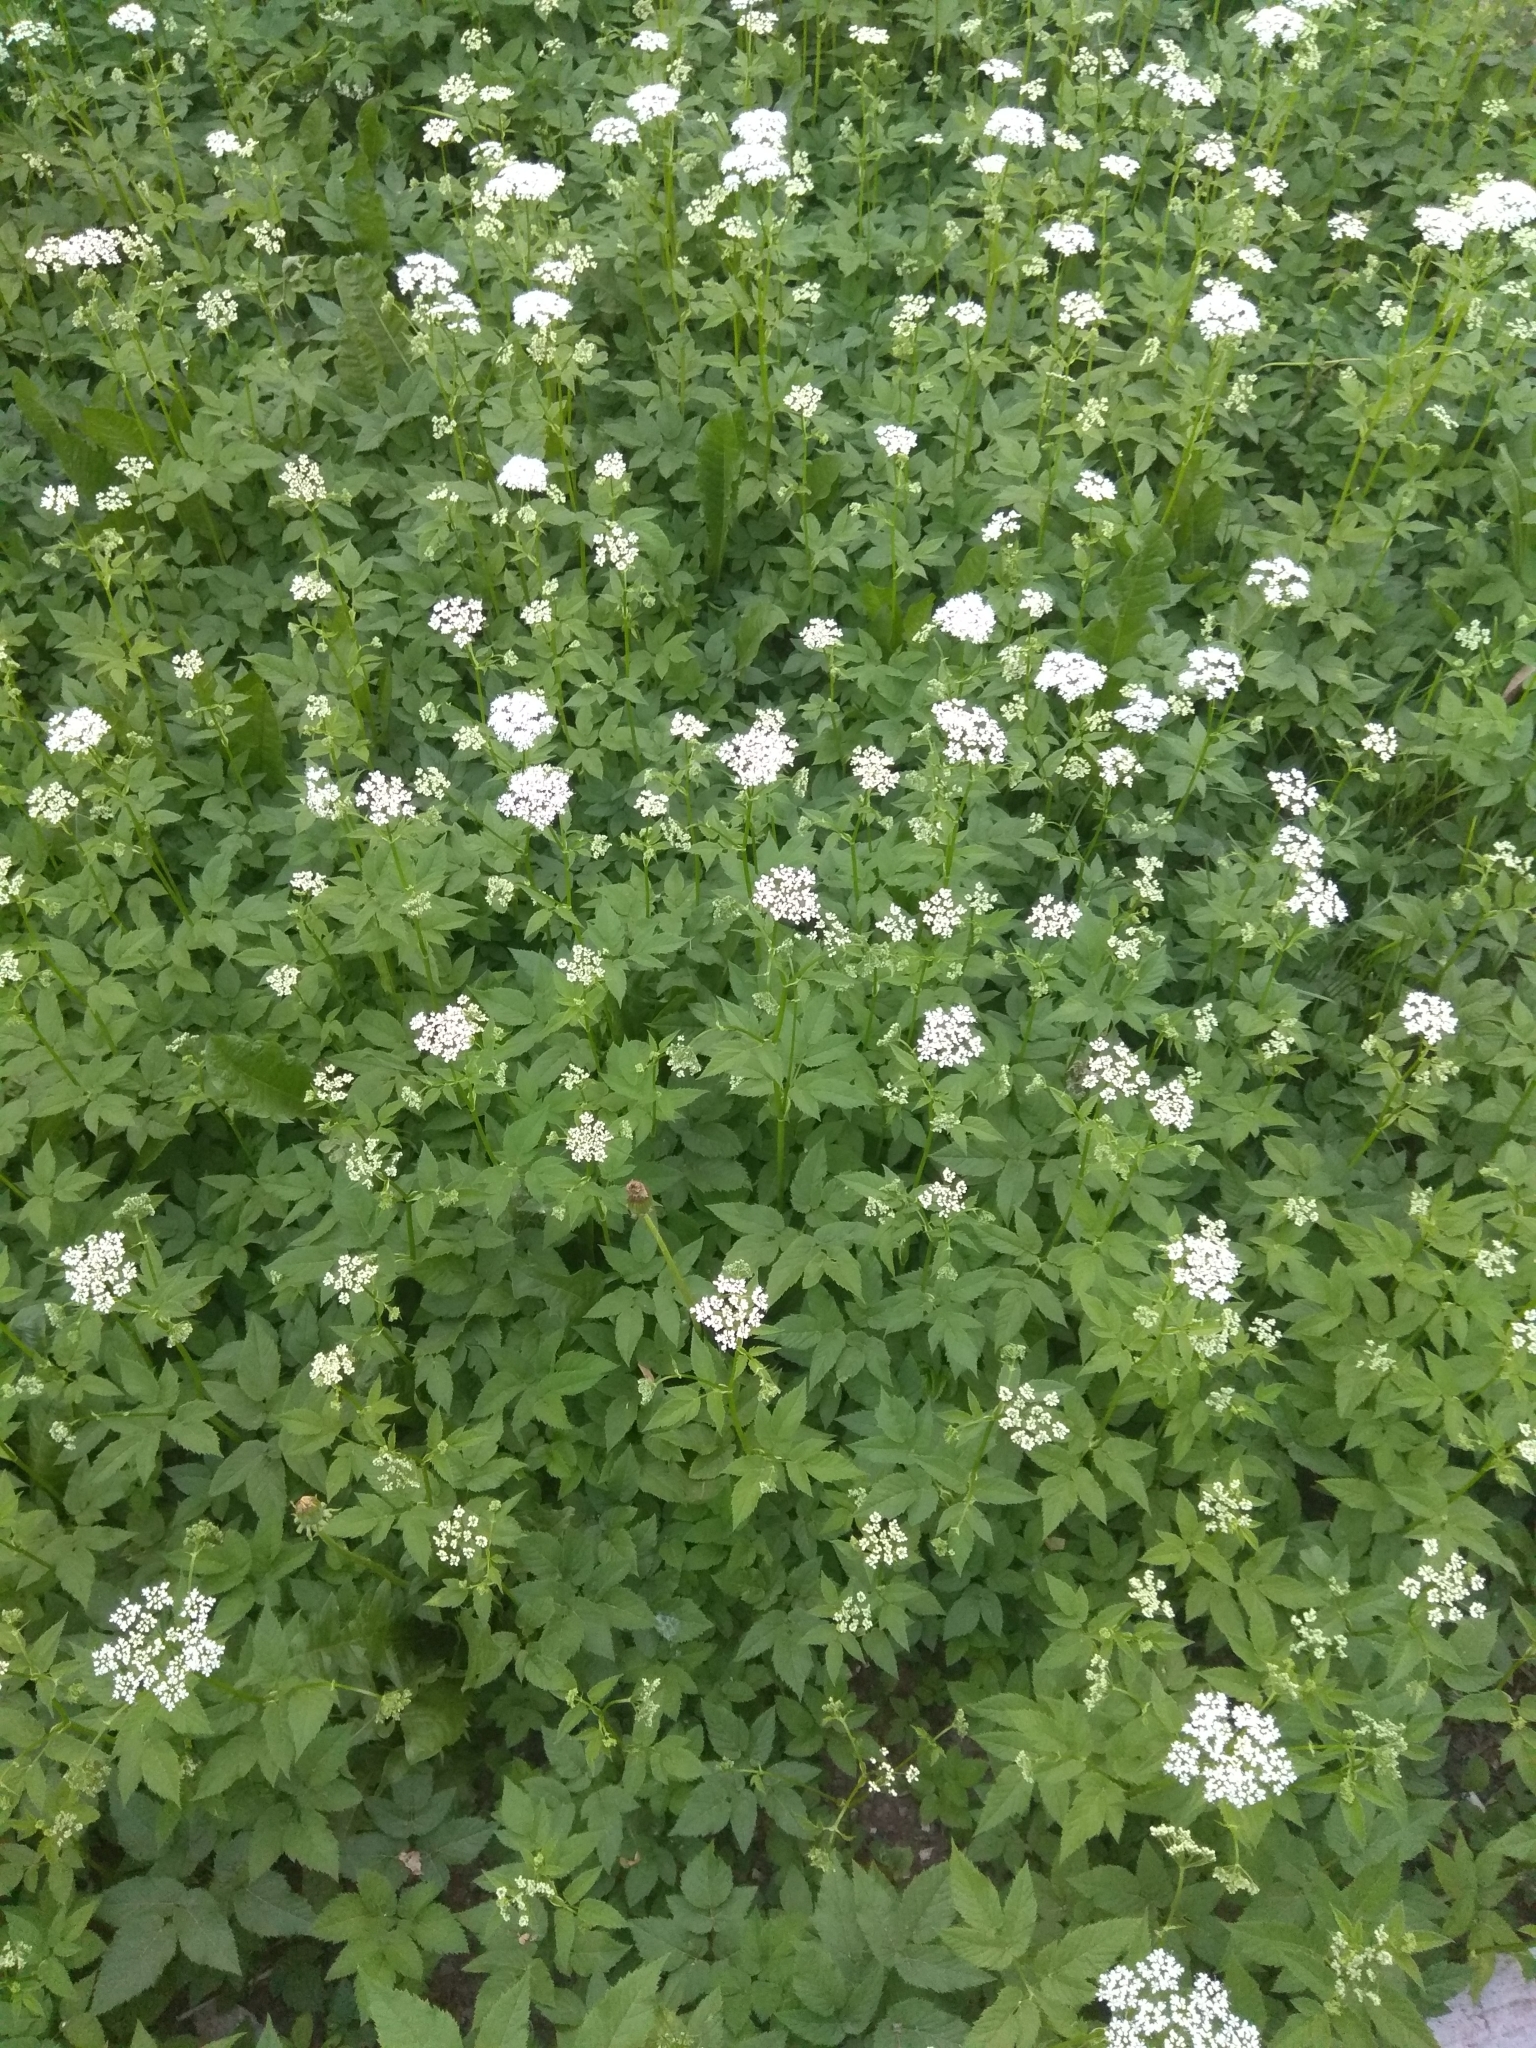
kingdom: Plantae
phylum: Tracheophyta
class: Magnoliopsida
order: Apiales
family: Apiaceae
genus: Aegopodium
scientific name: Aegopodium podagraria
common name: Ground-elder
